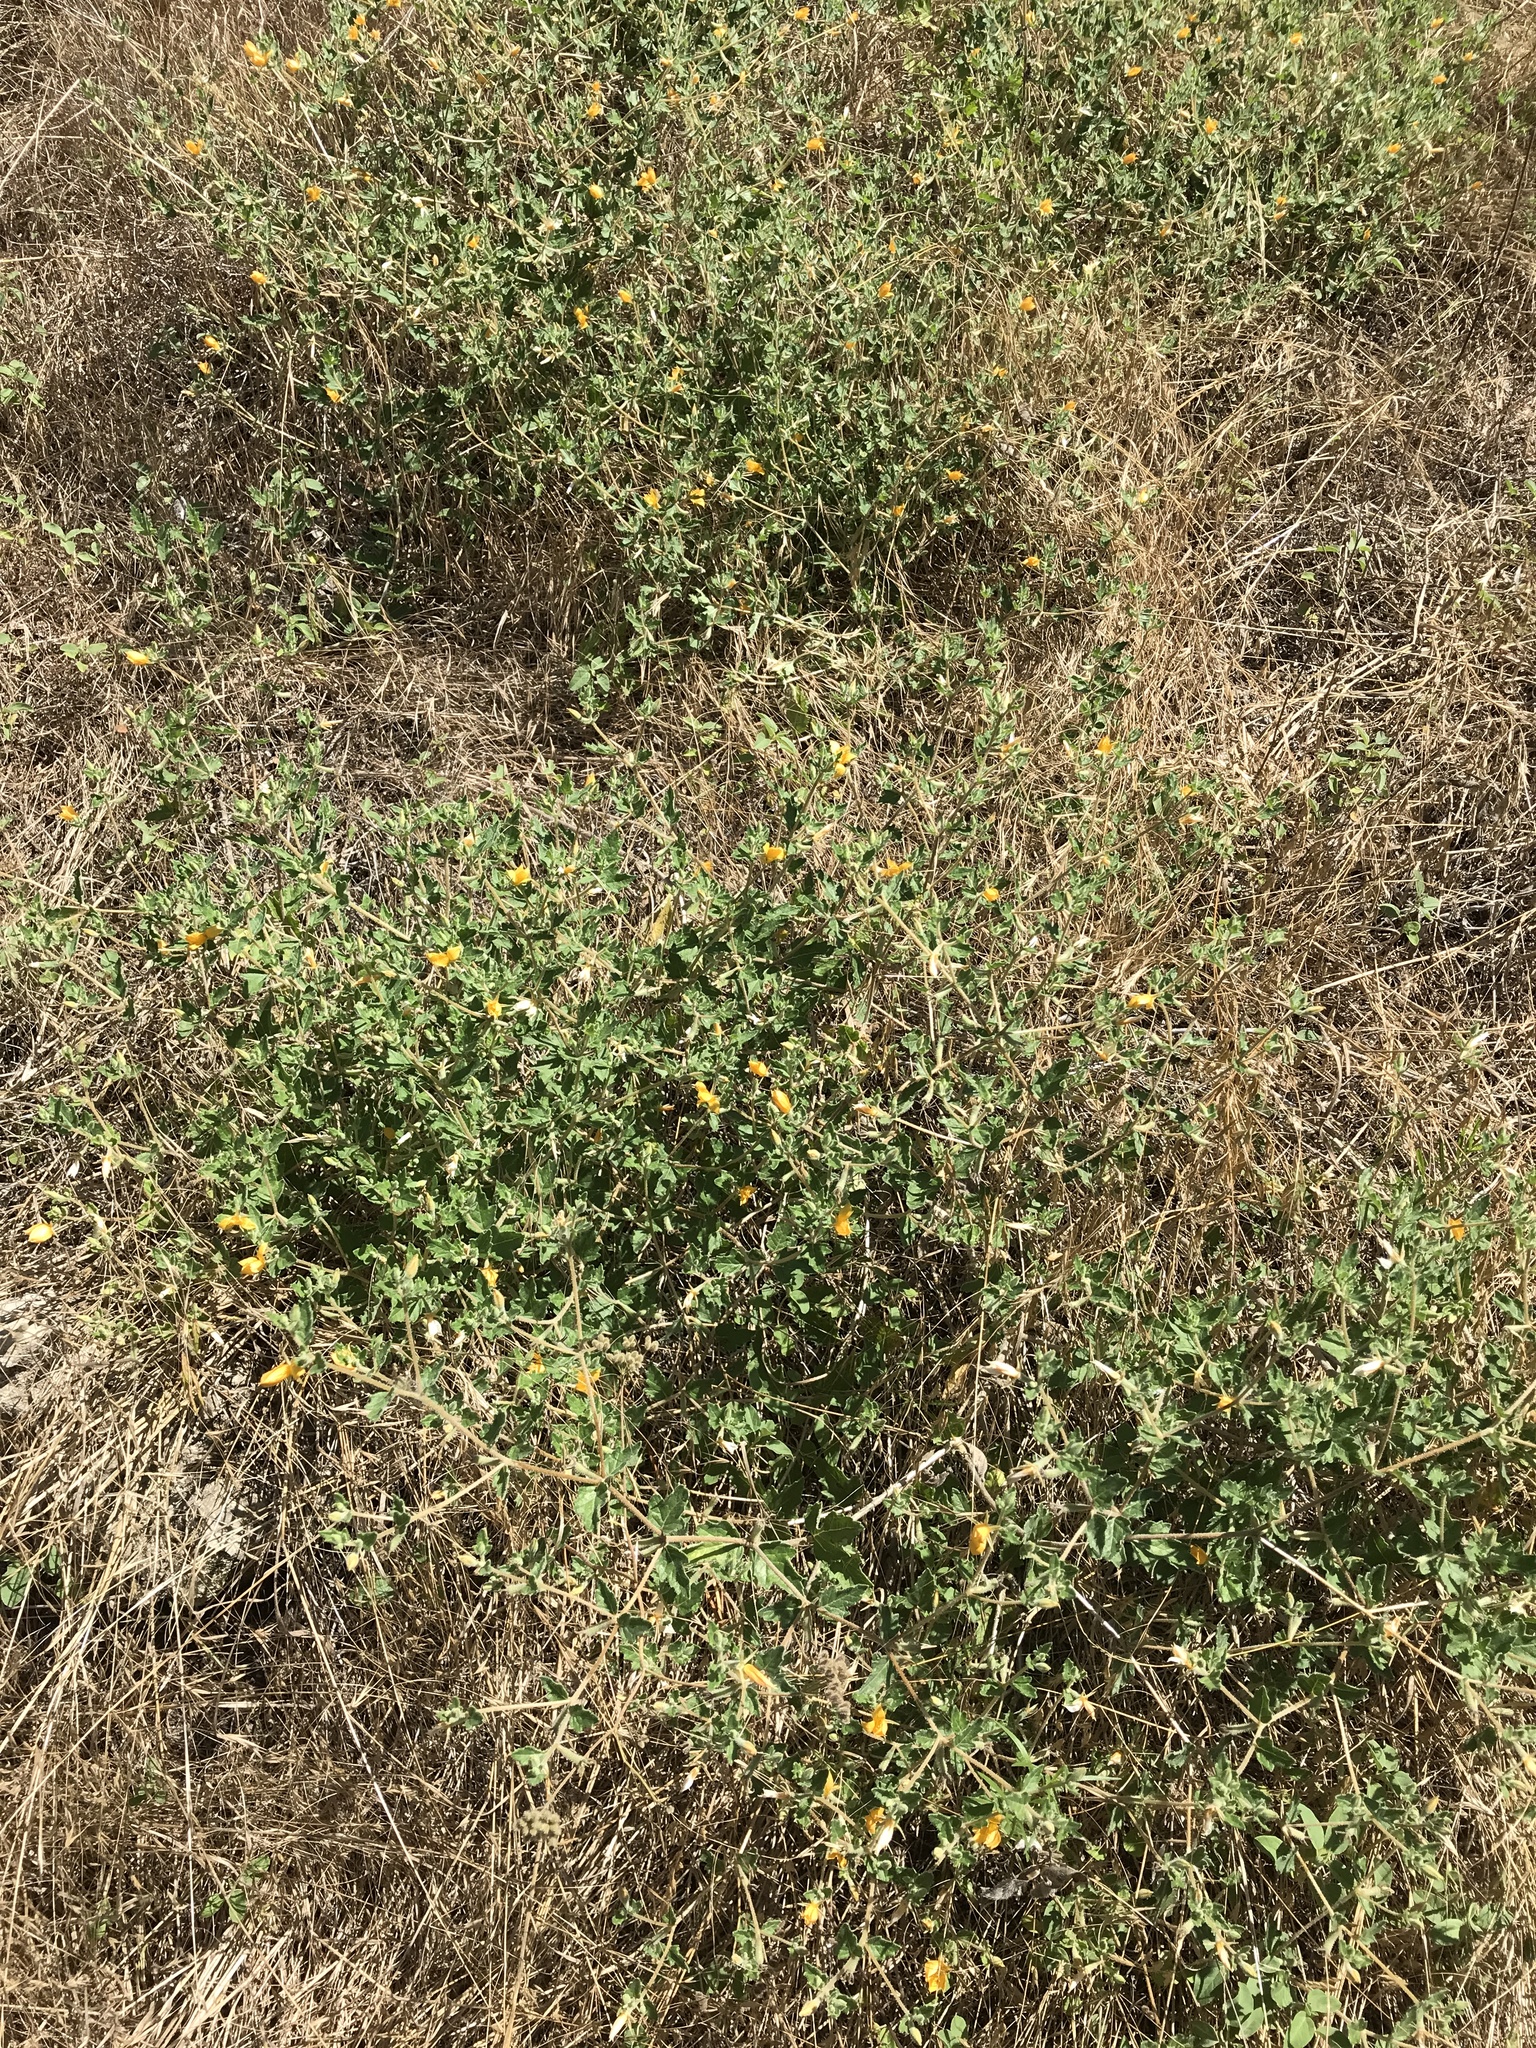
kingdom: Plantae
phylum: Tracheophyta
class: Magnoliopsida
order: Cornales
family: Loasaceae
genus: Mentzelia
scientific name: Mentzelia oligosperma
